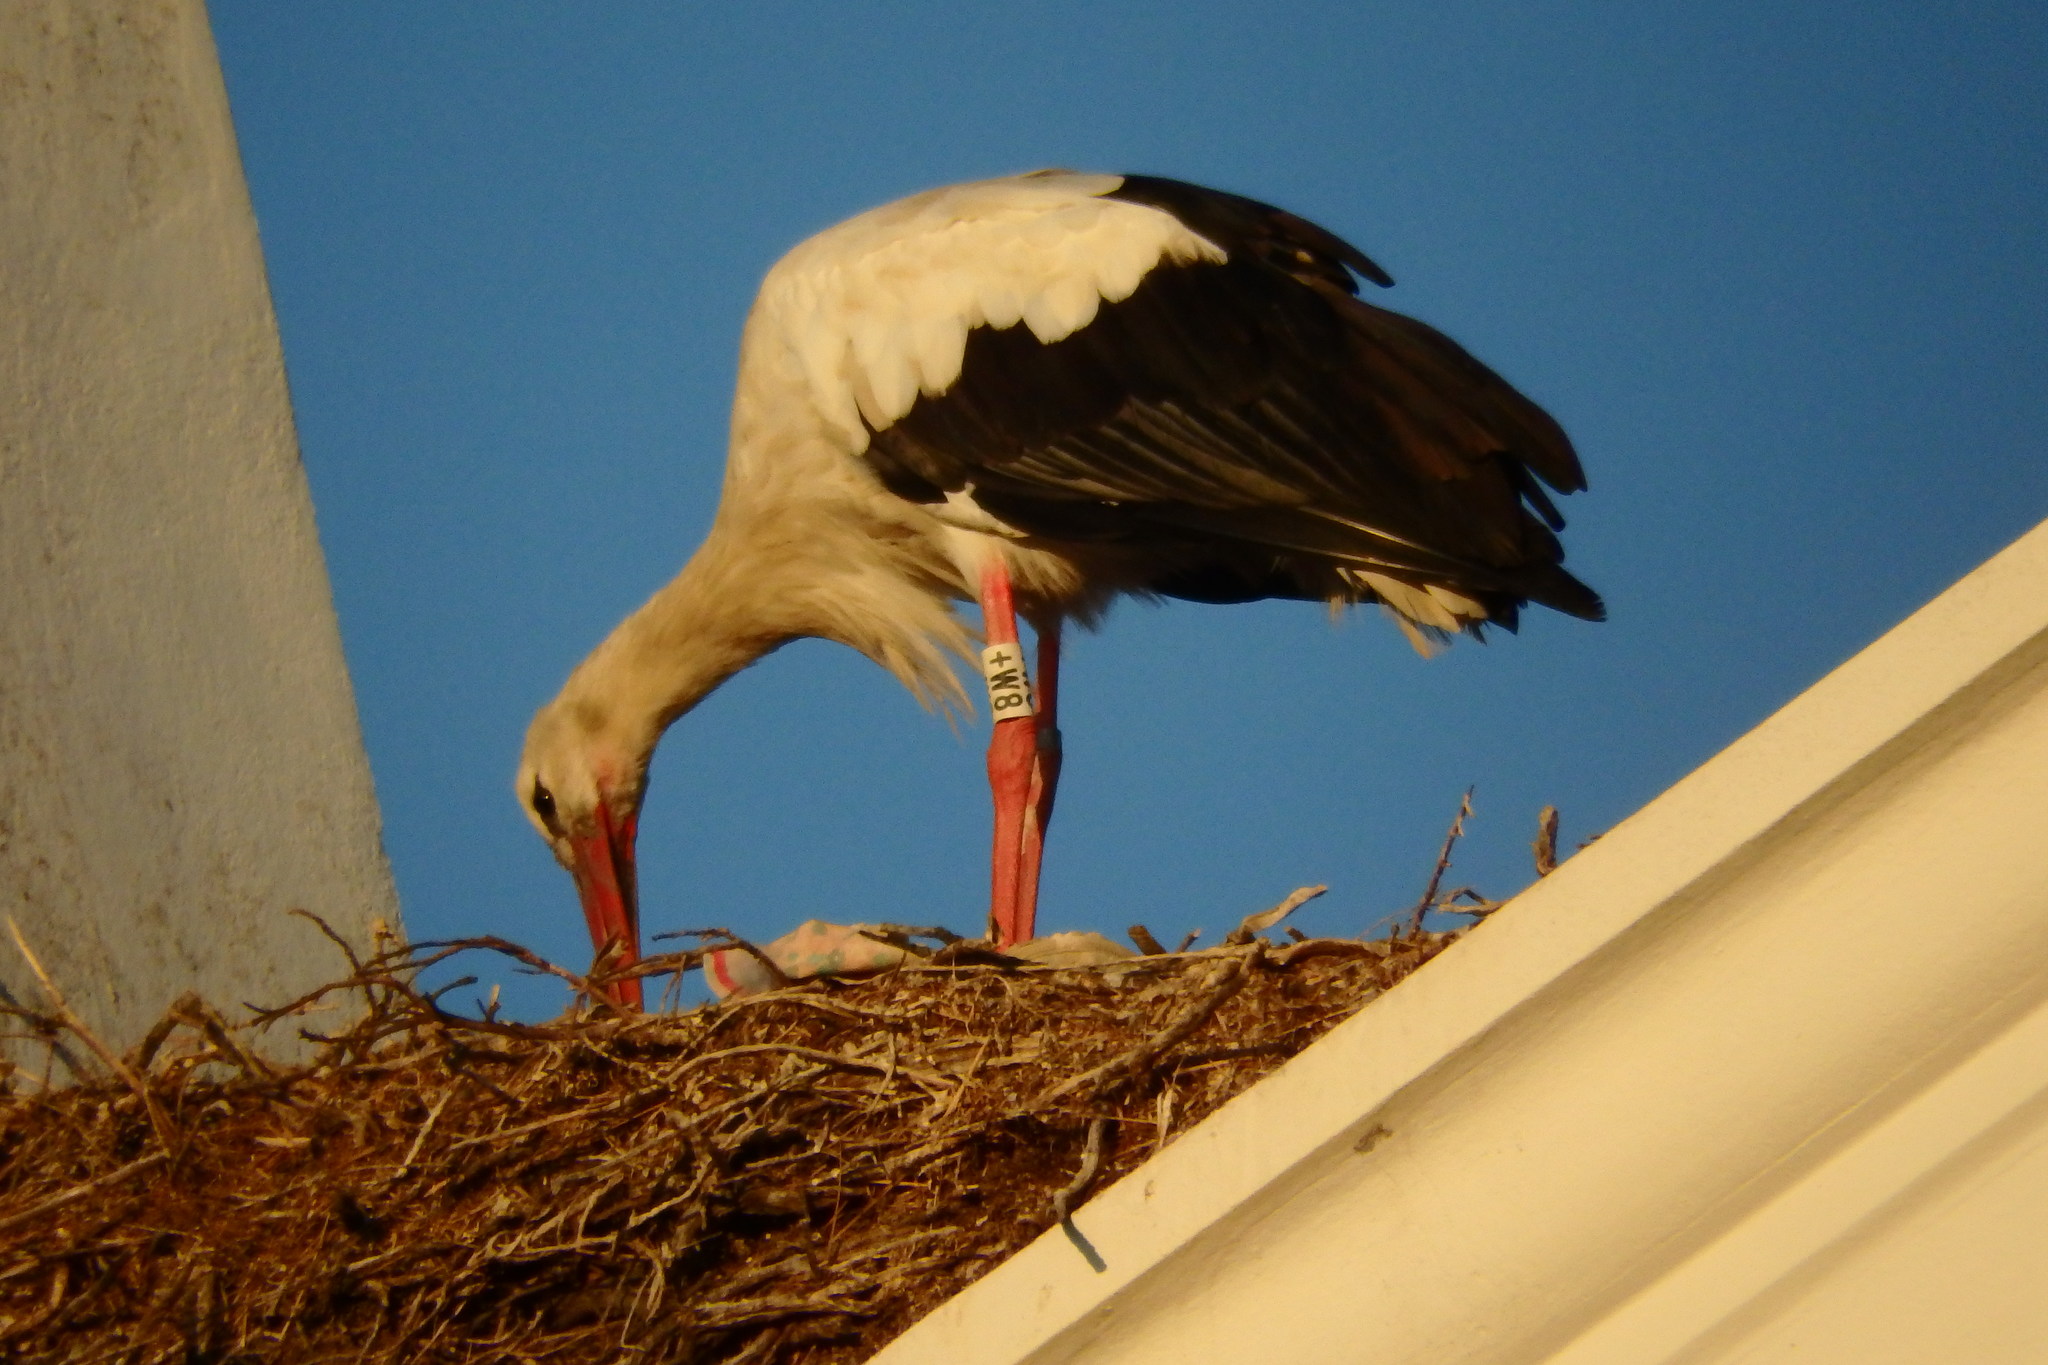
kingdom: Animalia
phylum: Chordata
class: Aves
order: Ciconiiformes
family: Ciconiidae
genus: Ciconia
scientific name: Ciconia ciconia
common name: White stork
